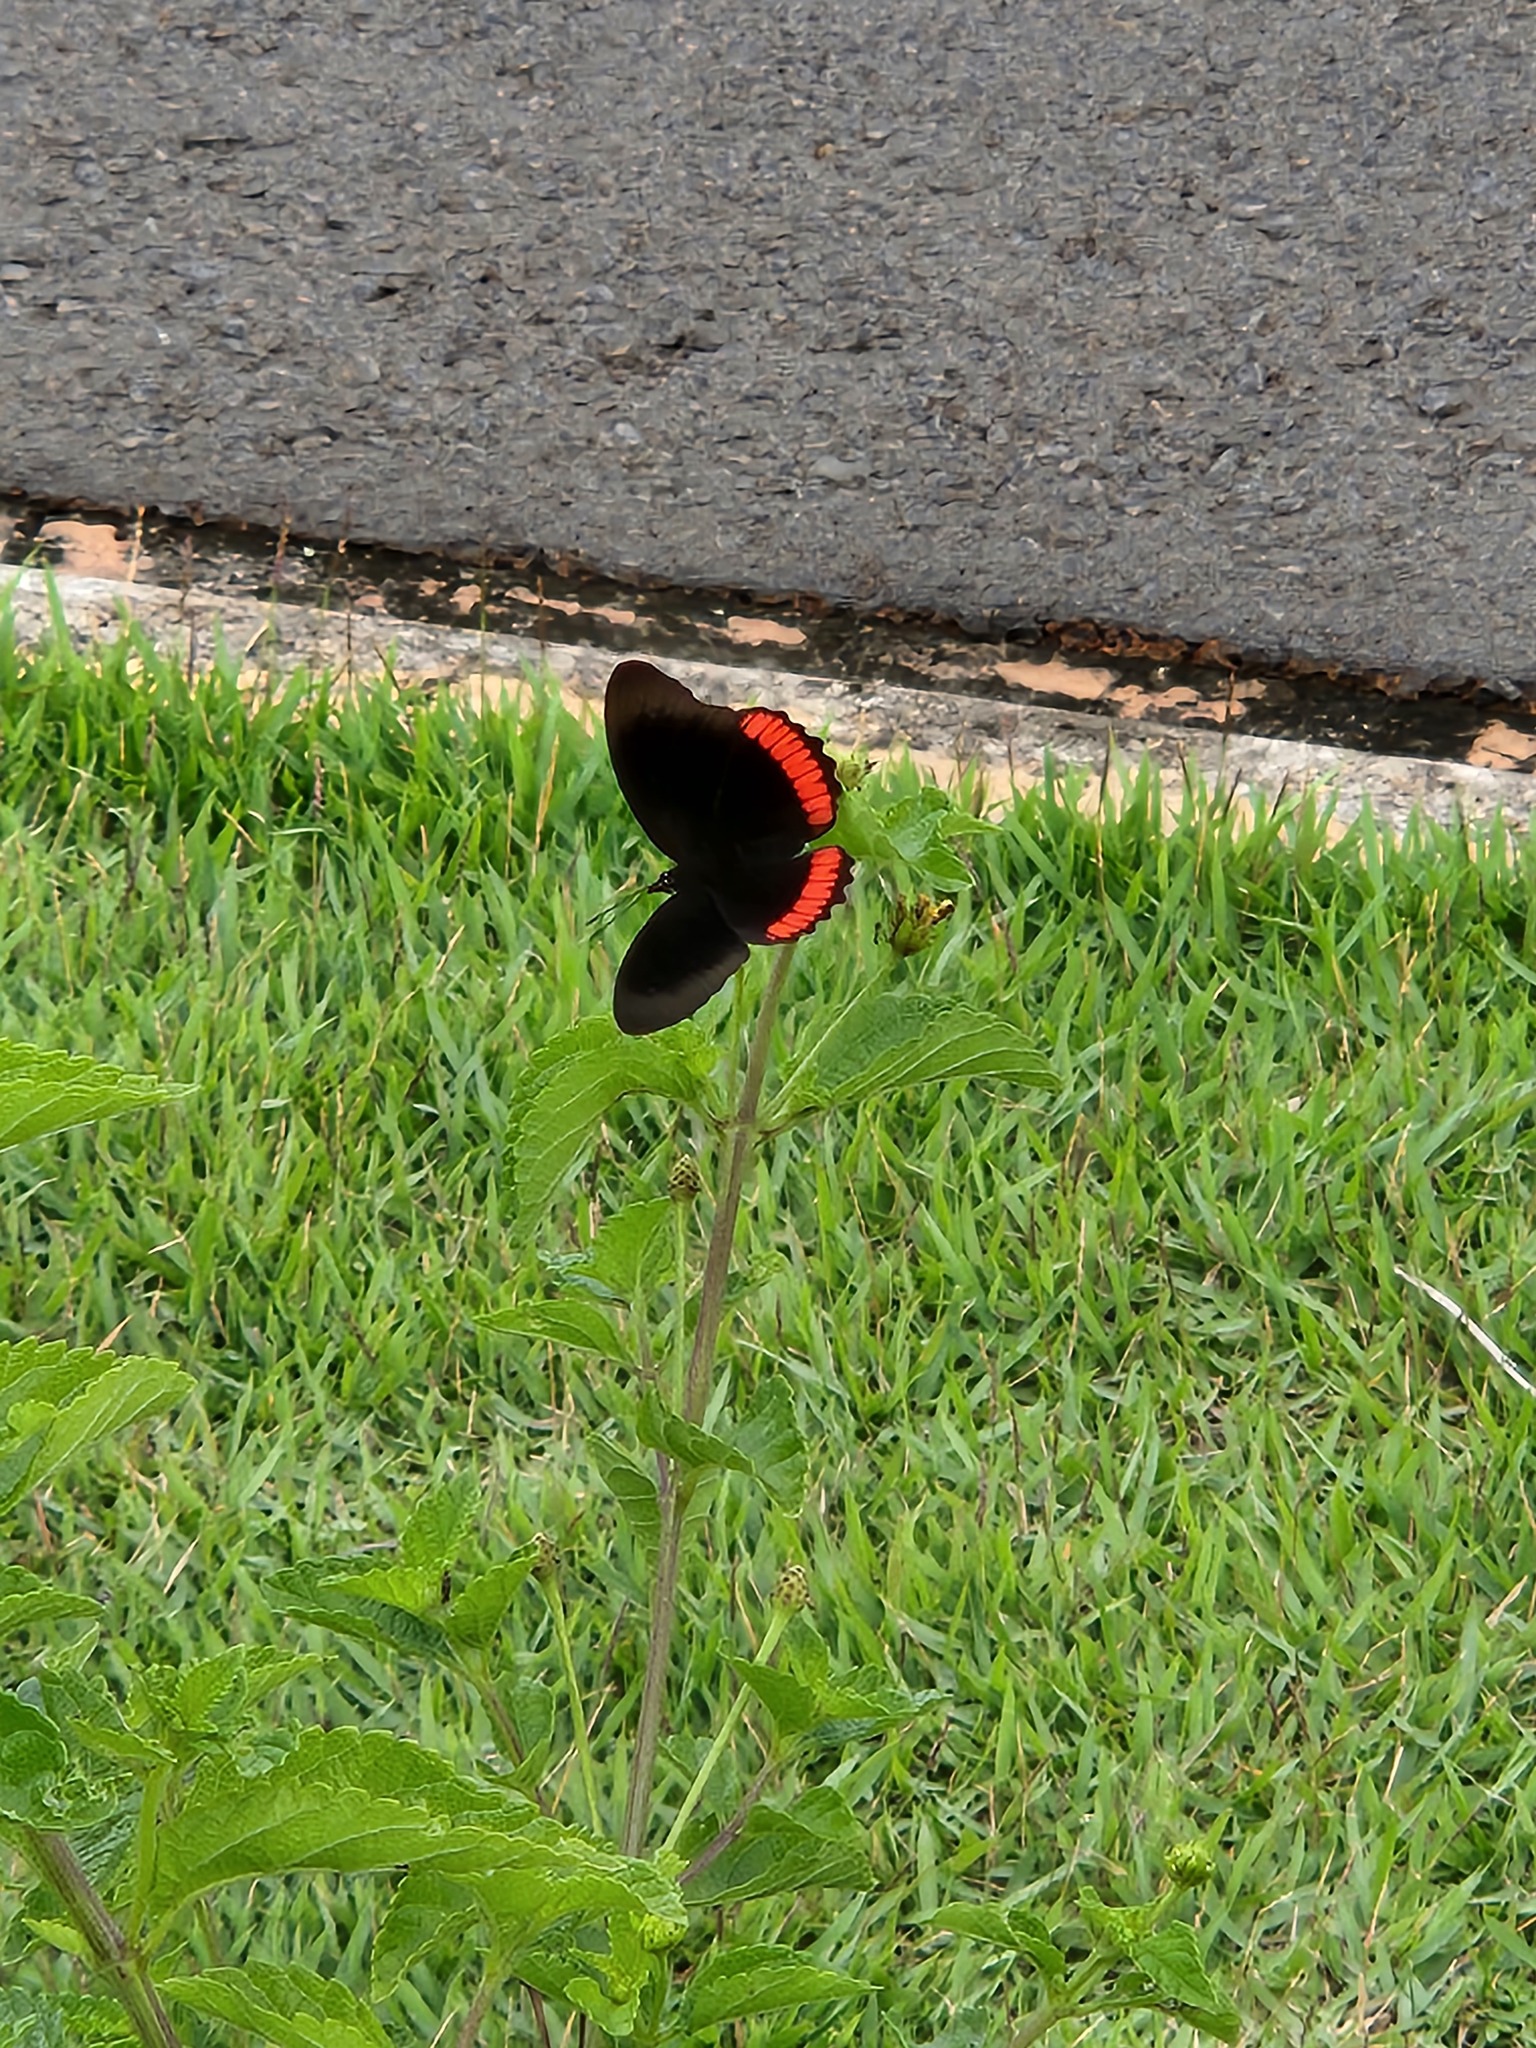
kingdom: Animalia
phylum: Arthropoda
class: Insecta
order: Lepidoptera
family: Sesiidae
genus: Sesia
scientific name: Sesia Biblis hyperia
